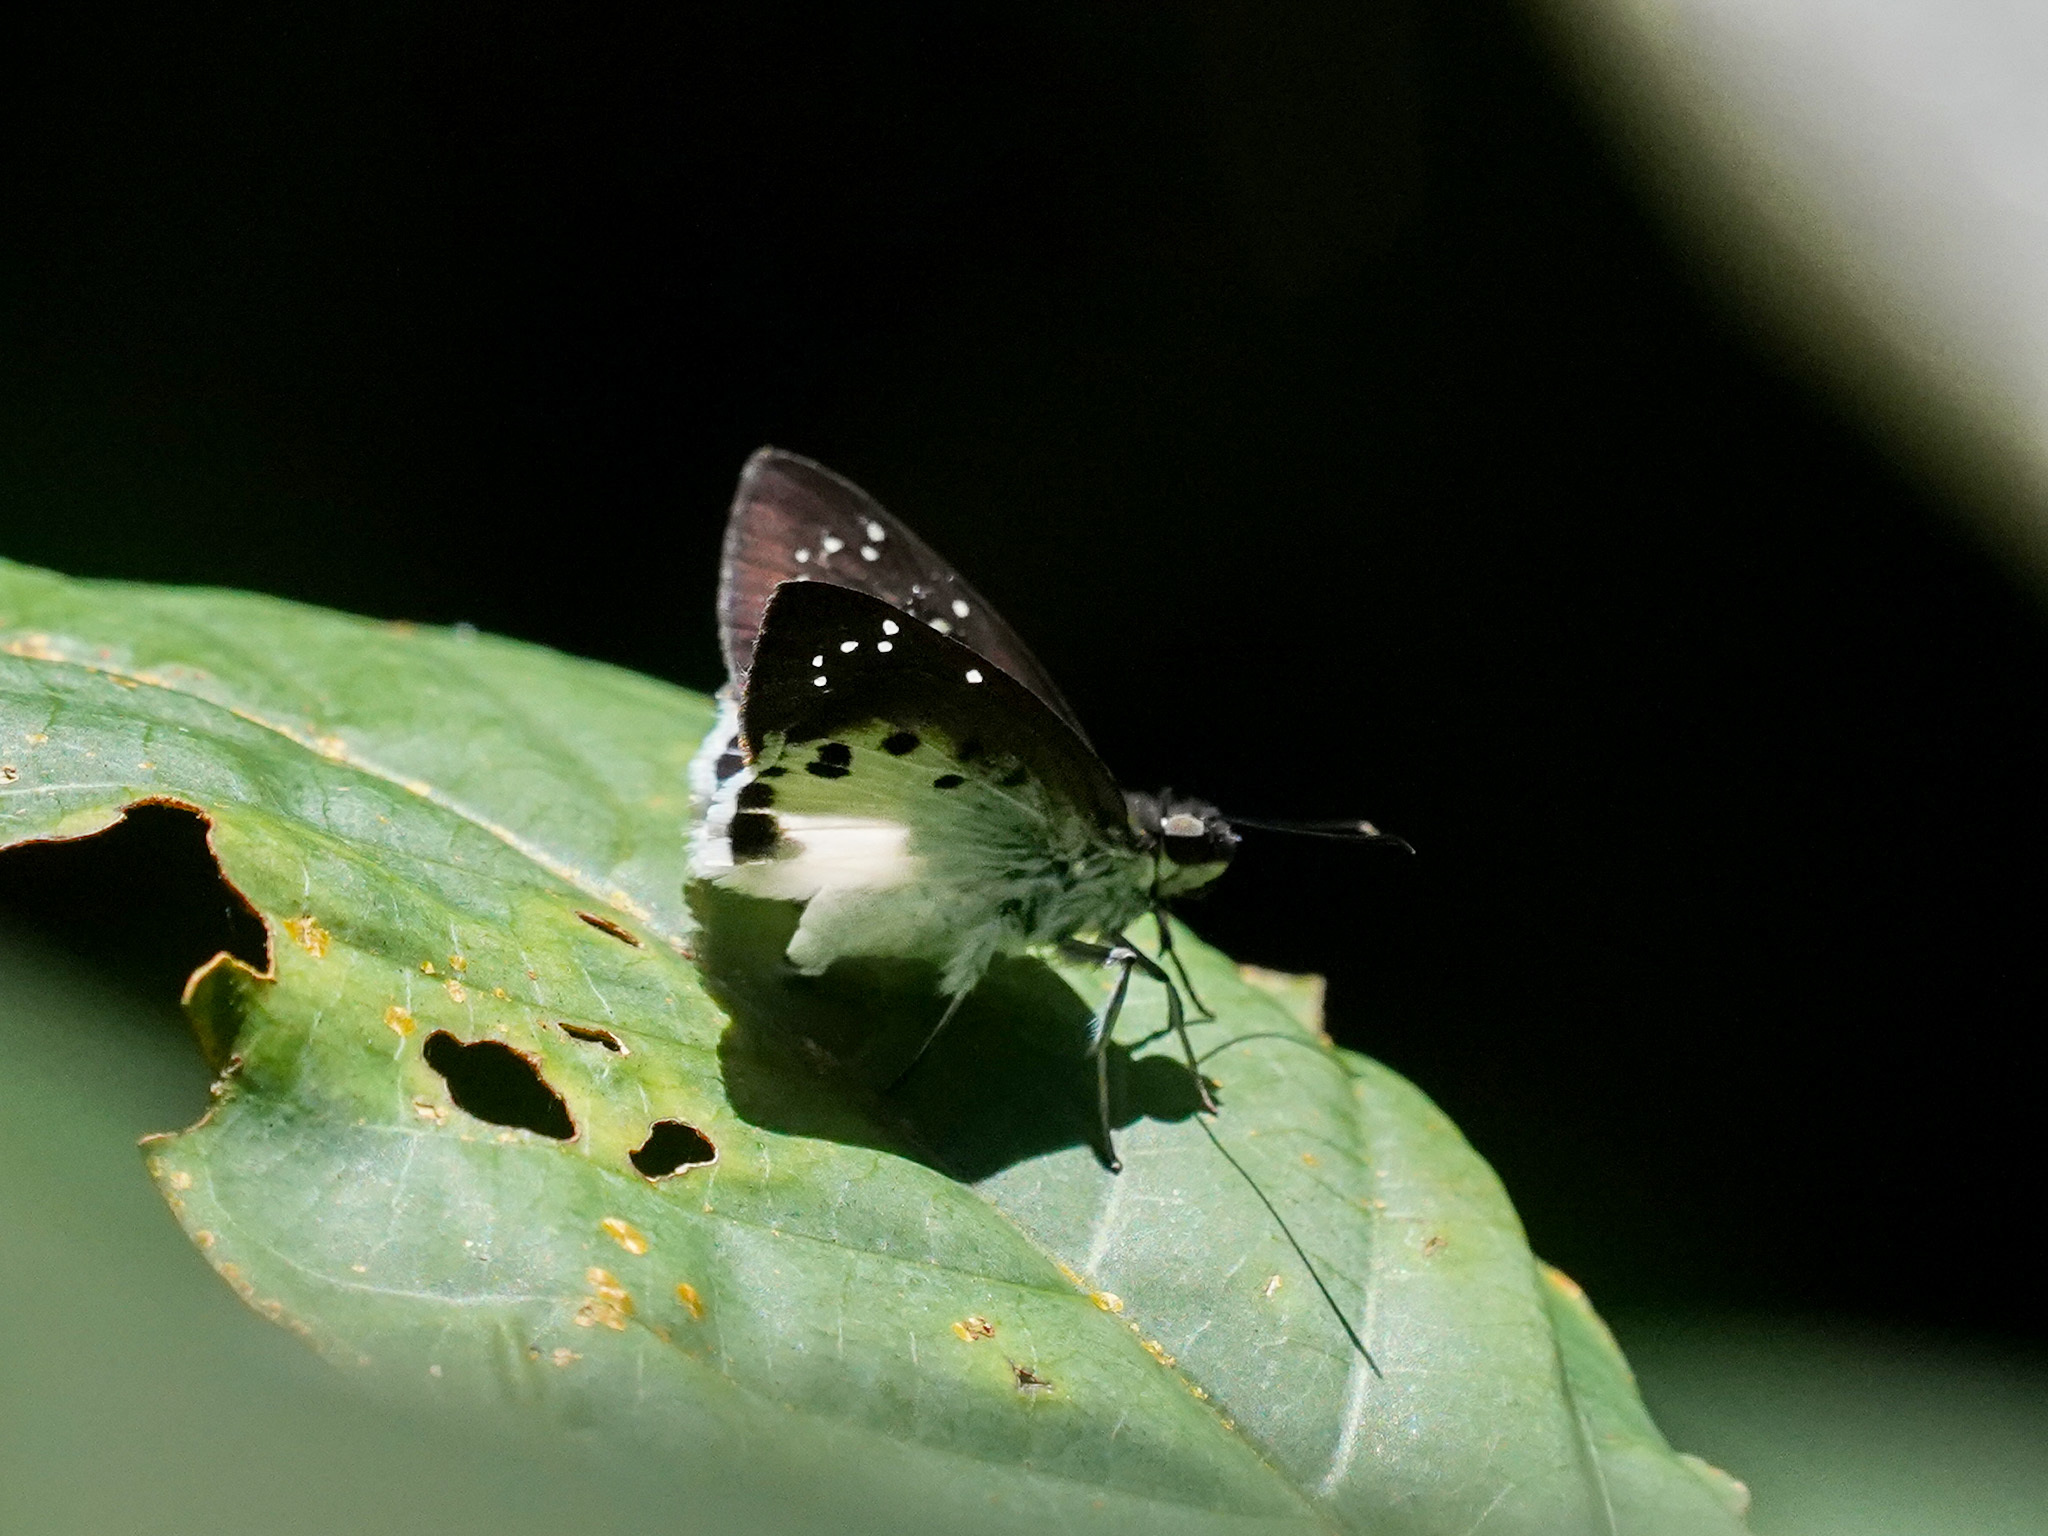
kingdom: Animalia
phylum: Arthropoda
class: Insecta
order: Lepidoptera
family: Hesperiidae
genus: Tagiades
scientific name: Tagiades litigiosa
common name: Water snow flat
